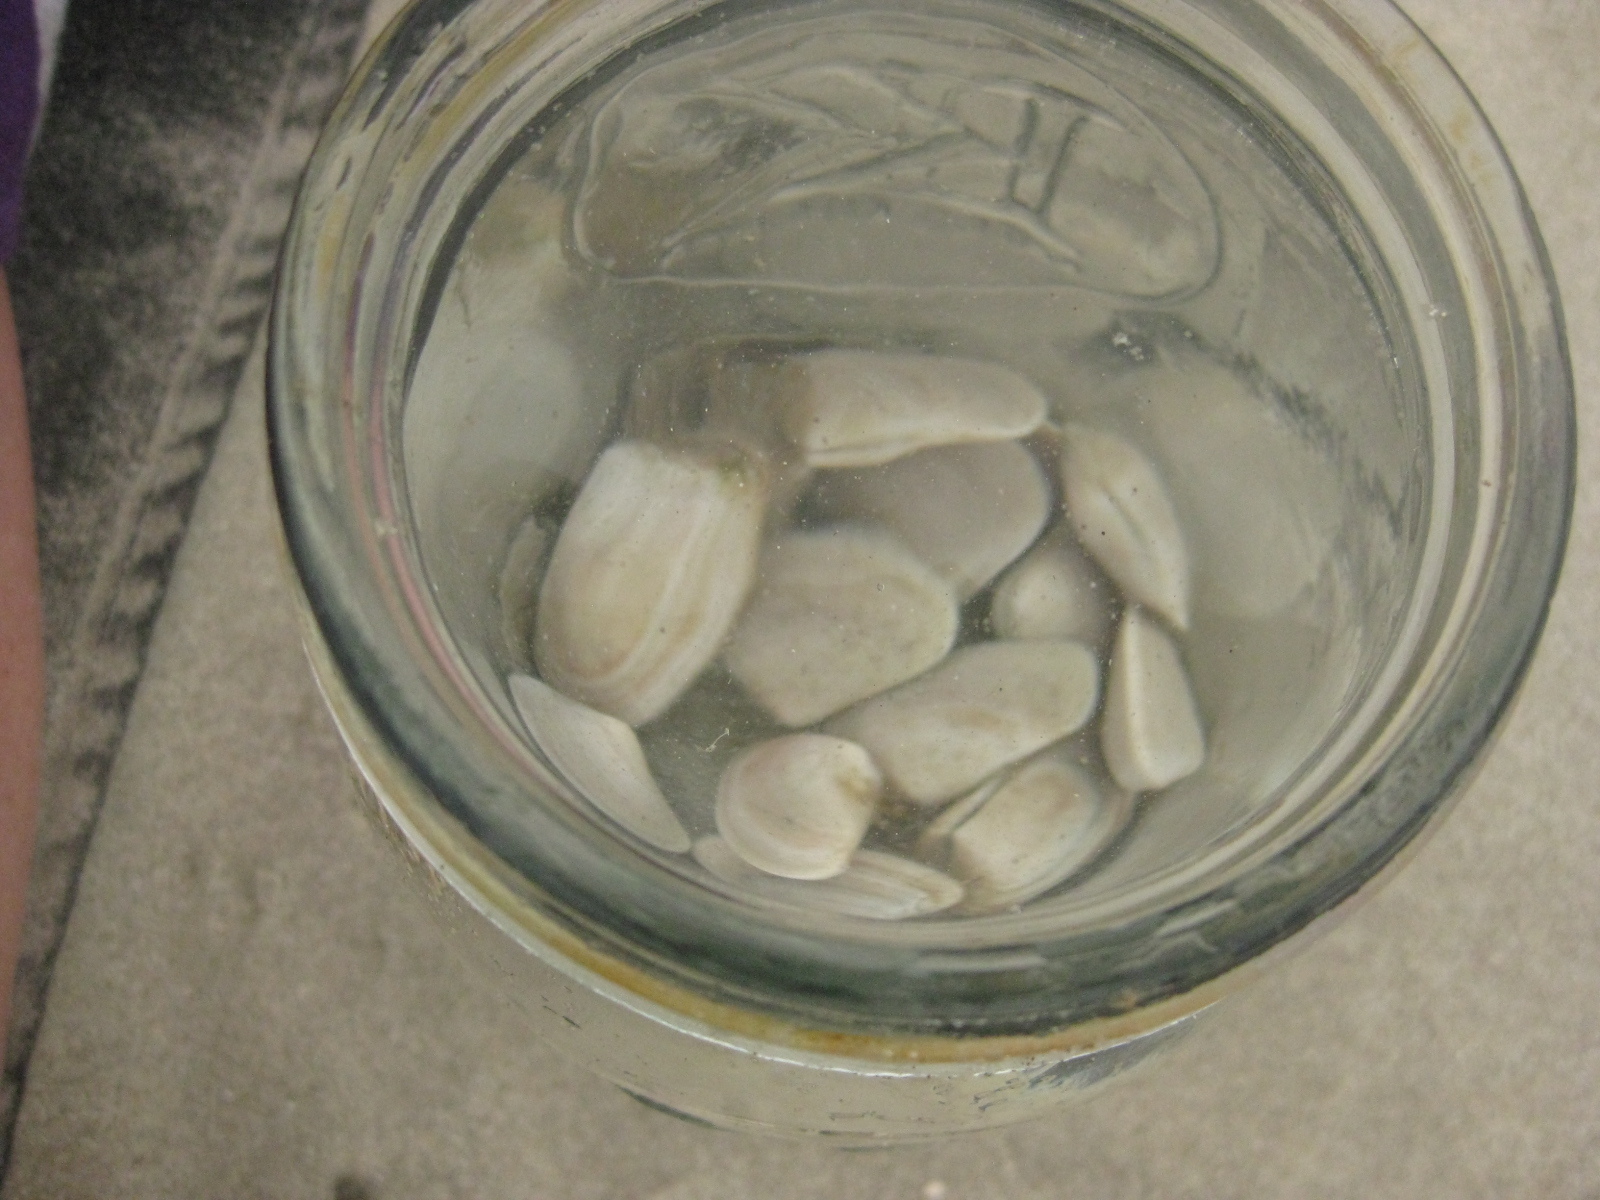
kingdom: Animalia
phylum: Mollusca
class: Bivalvia
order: Venerida
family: Mesodesmatidae
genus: Paphies
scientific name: Paphies subtriangulata
